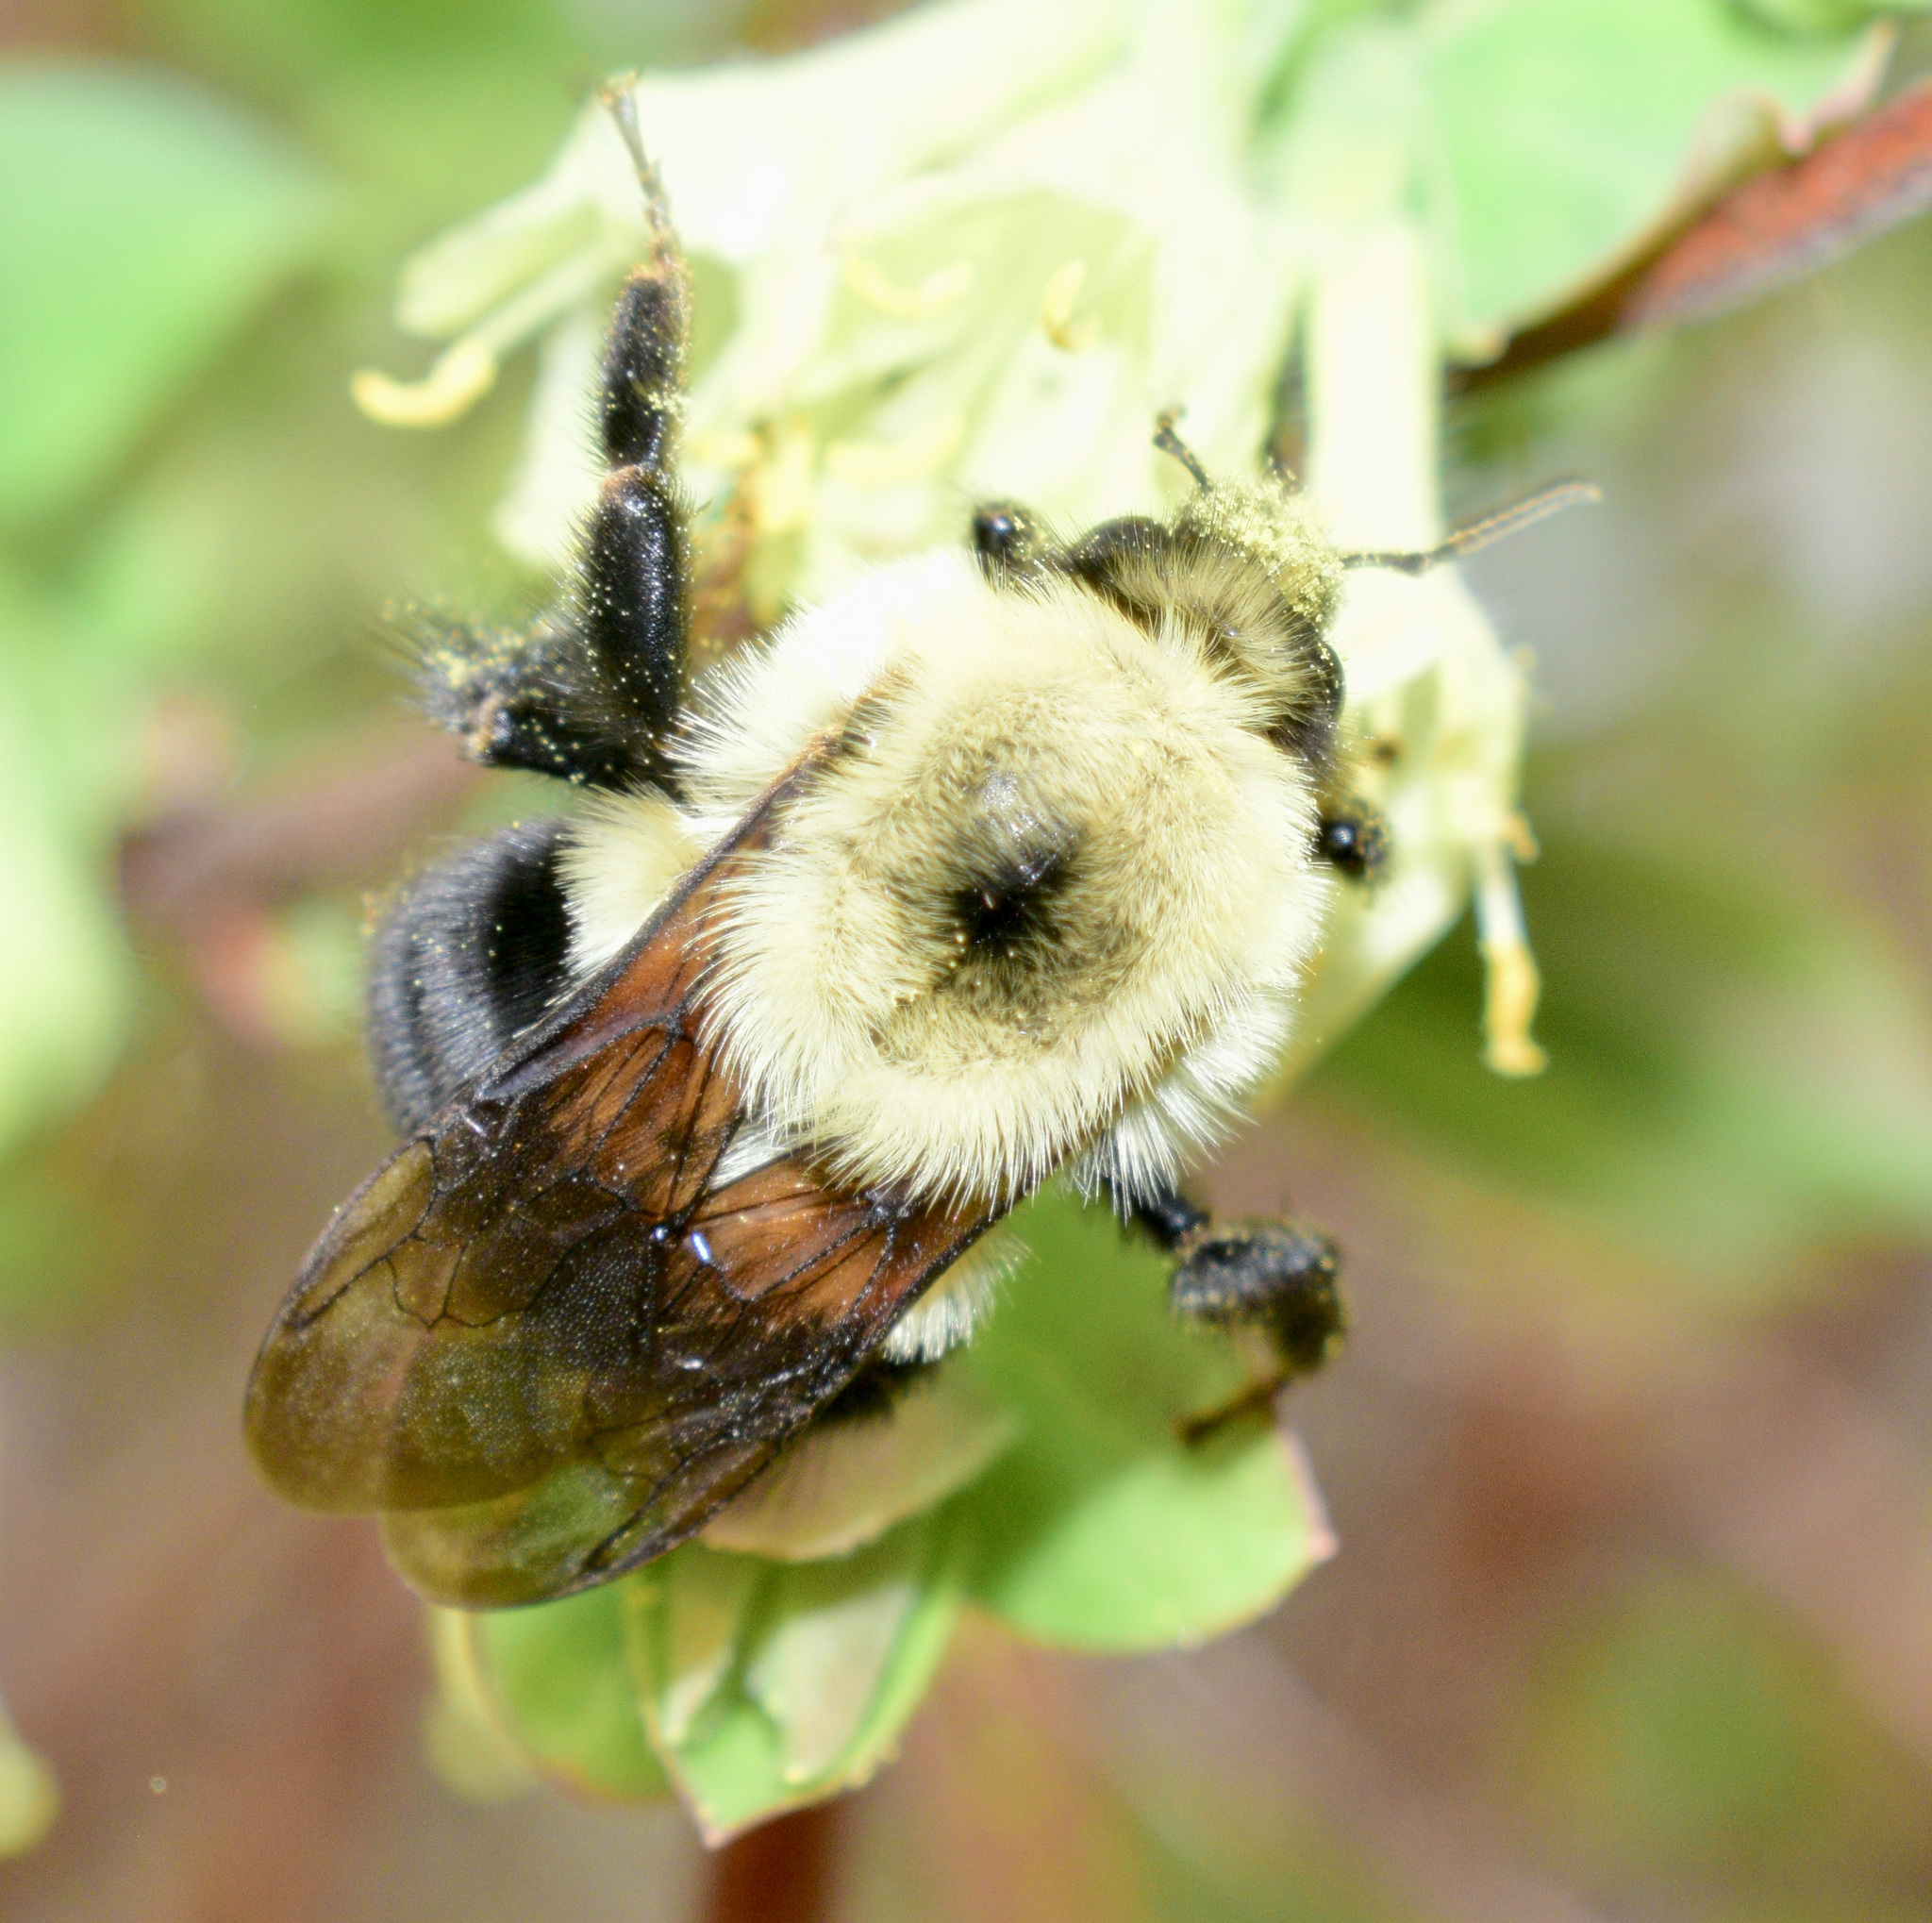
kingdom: Animalia
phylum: Arthropoda
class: Insecta
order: Hymenoptera
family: Apidae
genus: Bombus
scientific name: Bombus bimaculatus
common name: Two-spotted bumble bee
